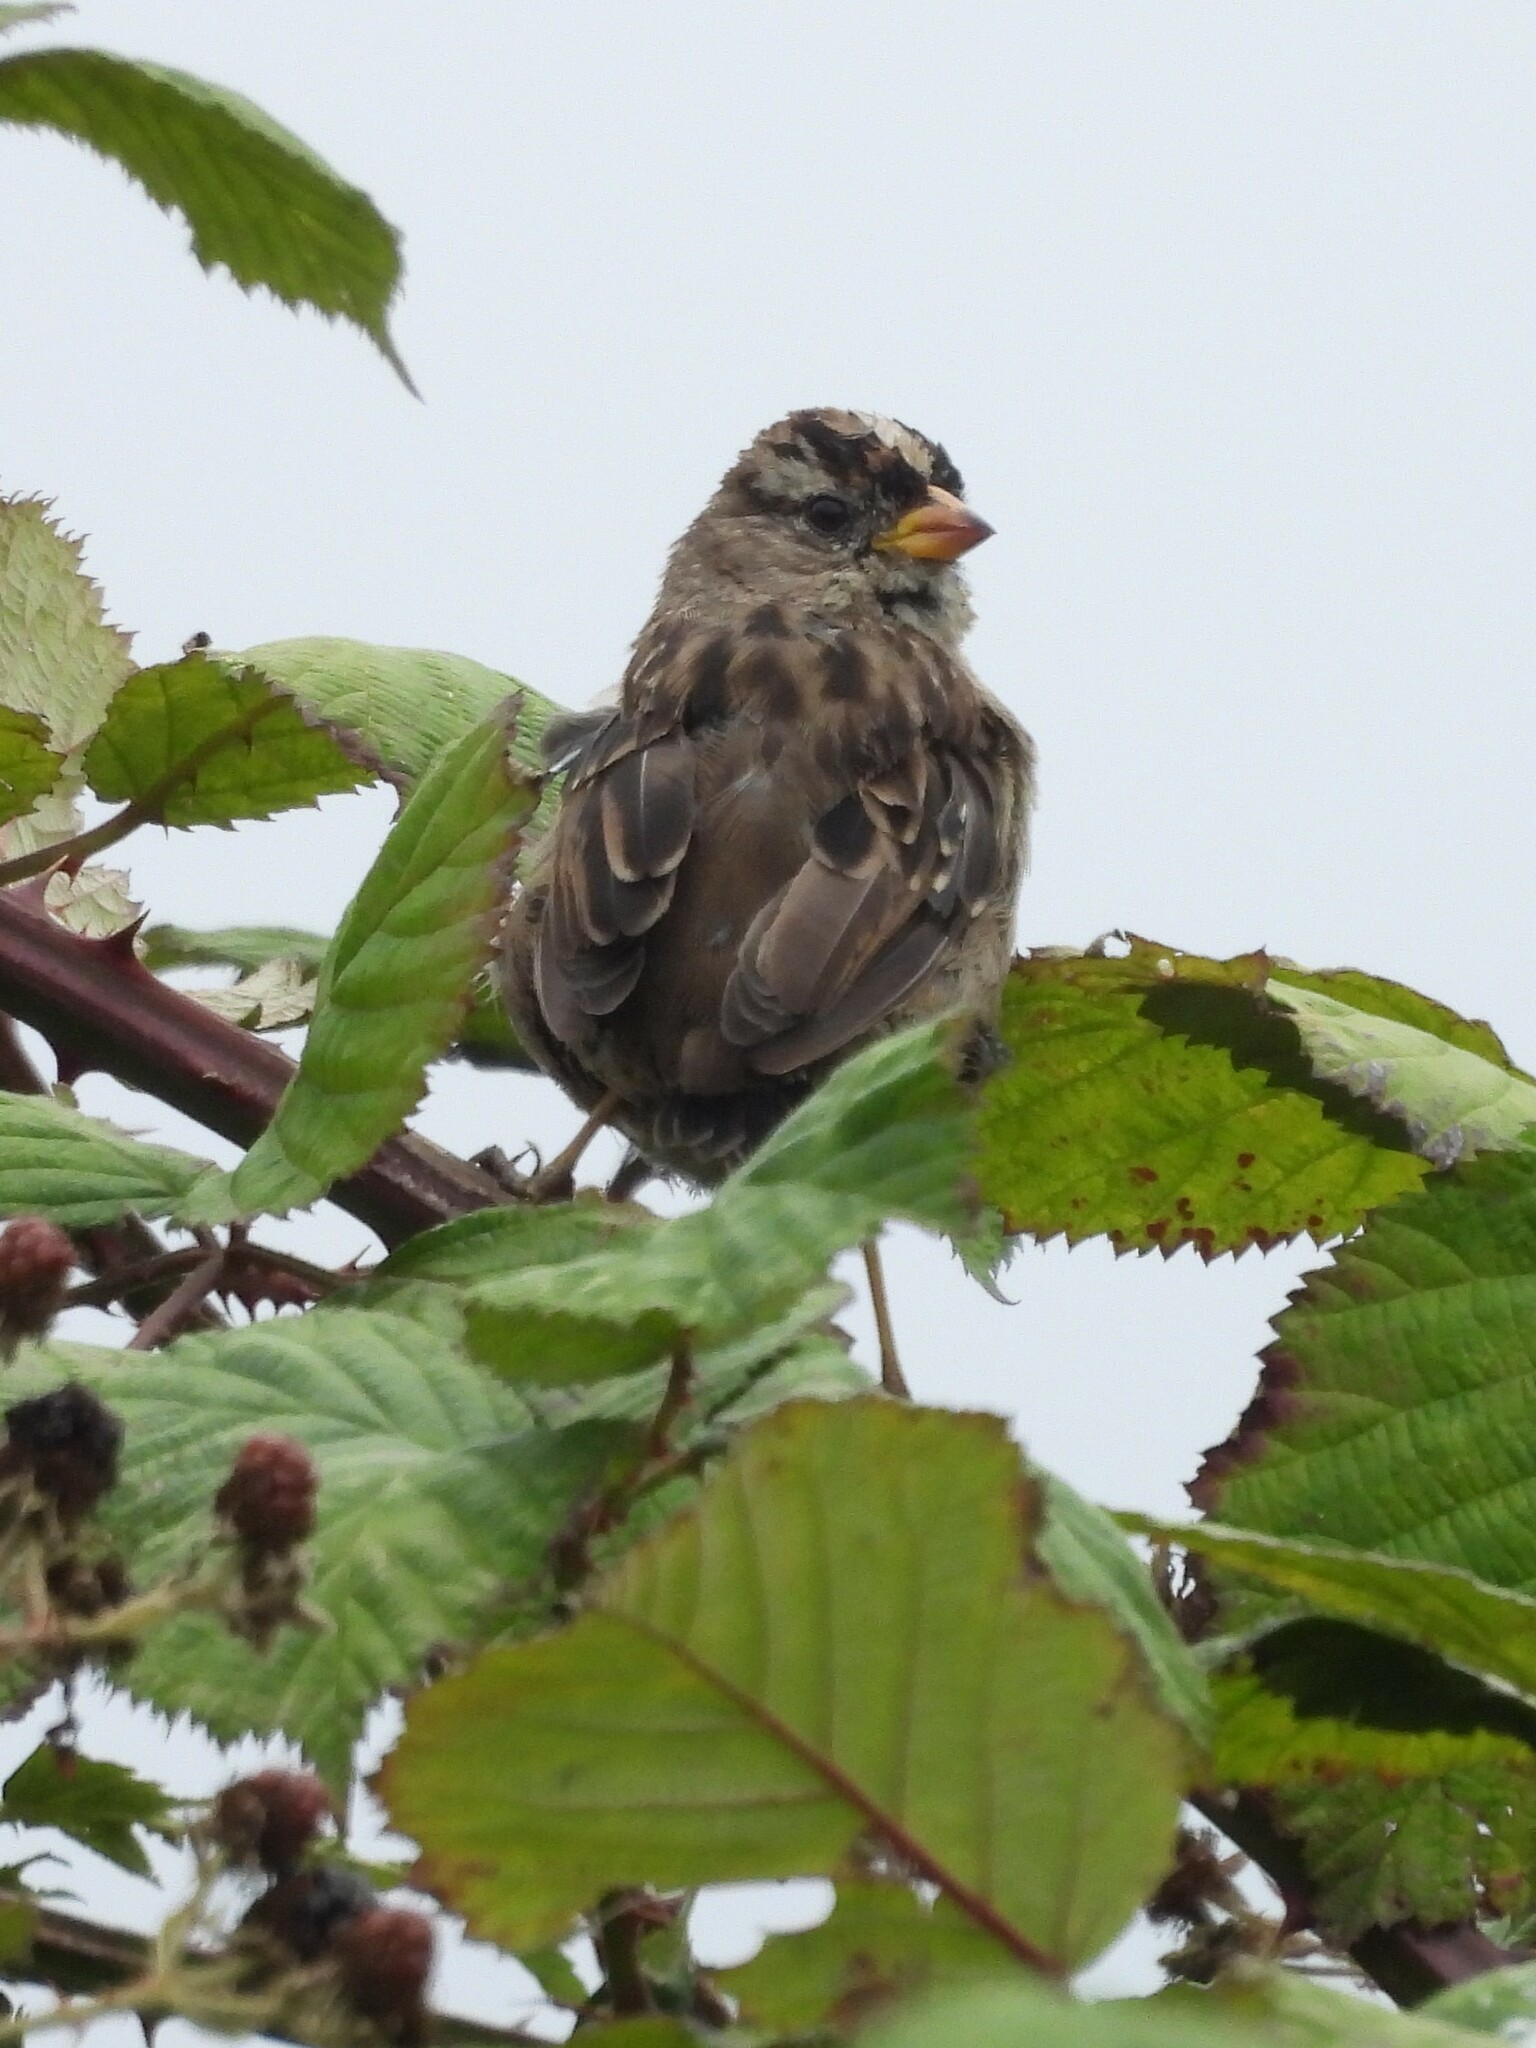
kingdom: Animalia
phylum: Chordata
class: Aves
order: Passeriformes
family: Passerellidae
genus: Zonotrichia
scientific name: Zonotrichia leucophrys
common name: White-crowned sparrow
